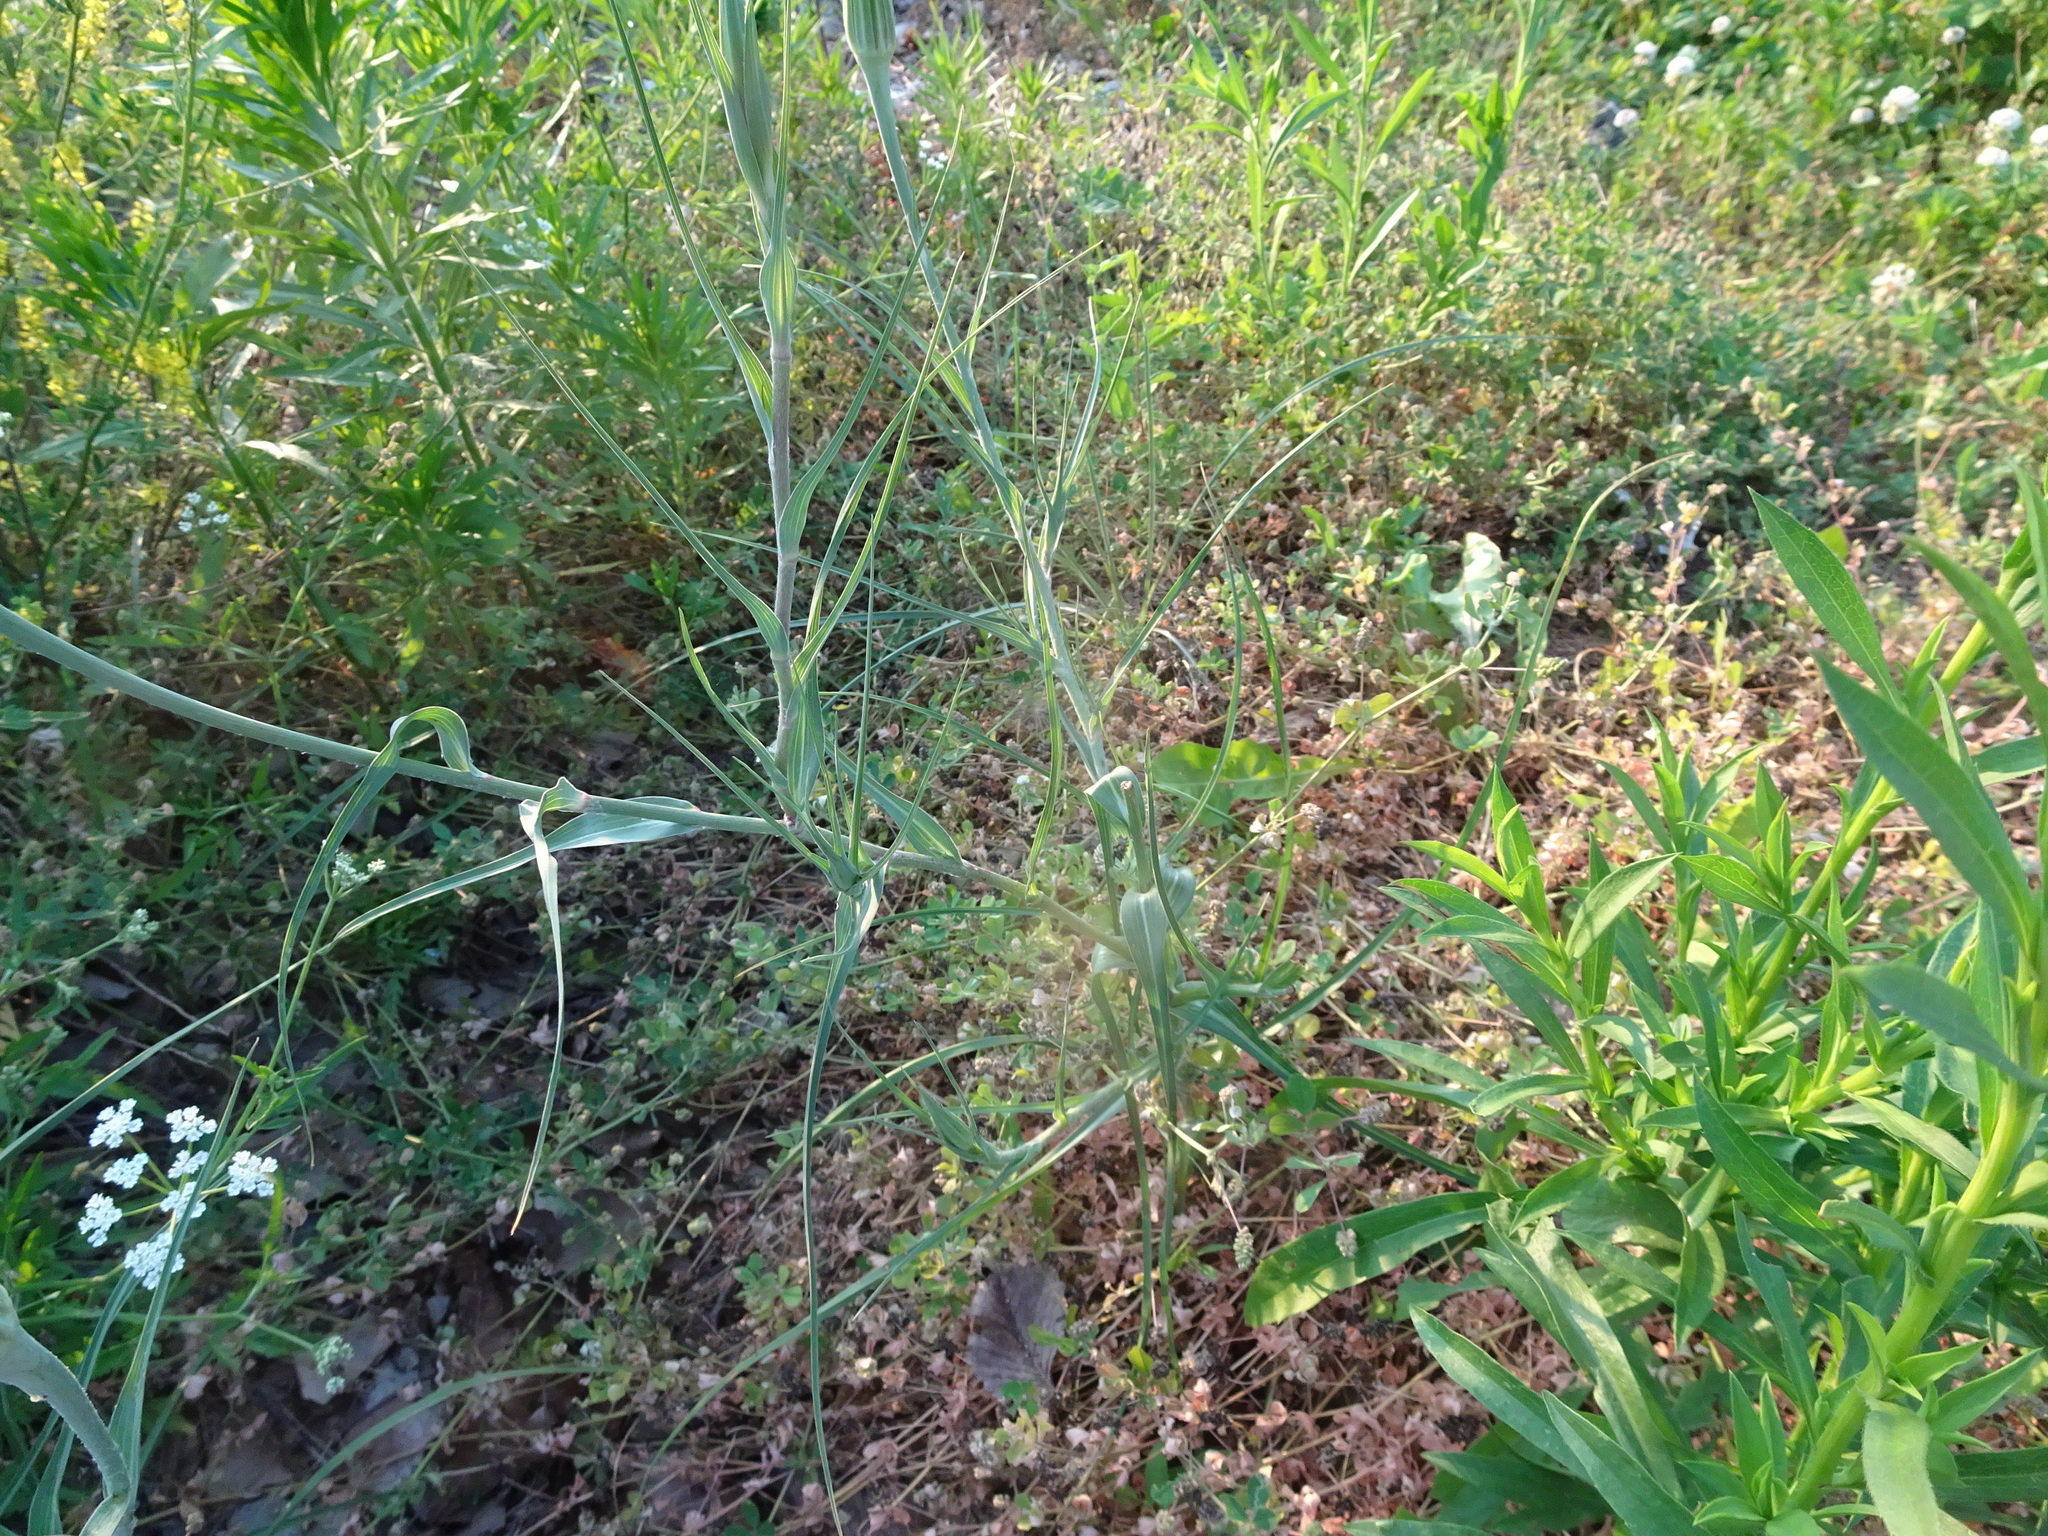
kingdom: Plantae
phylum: Tracheophyta
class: Magnoliopsida
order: Asterales
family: Asteraceae
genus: Tragopogon
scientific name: Tragopogon dubius
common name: Yellow salsify
